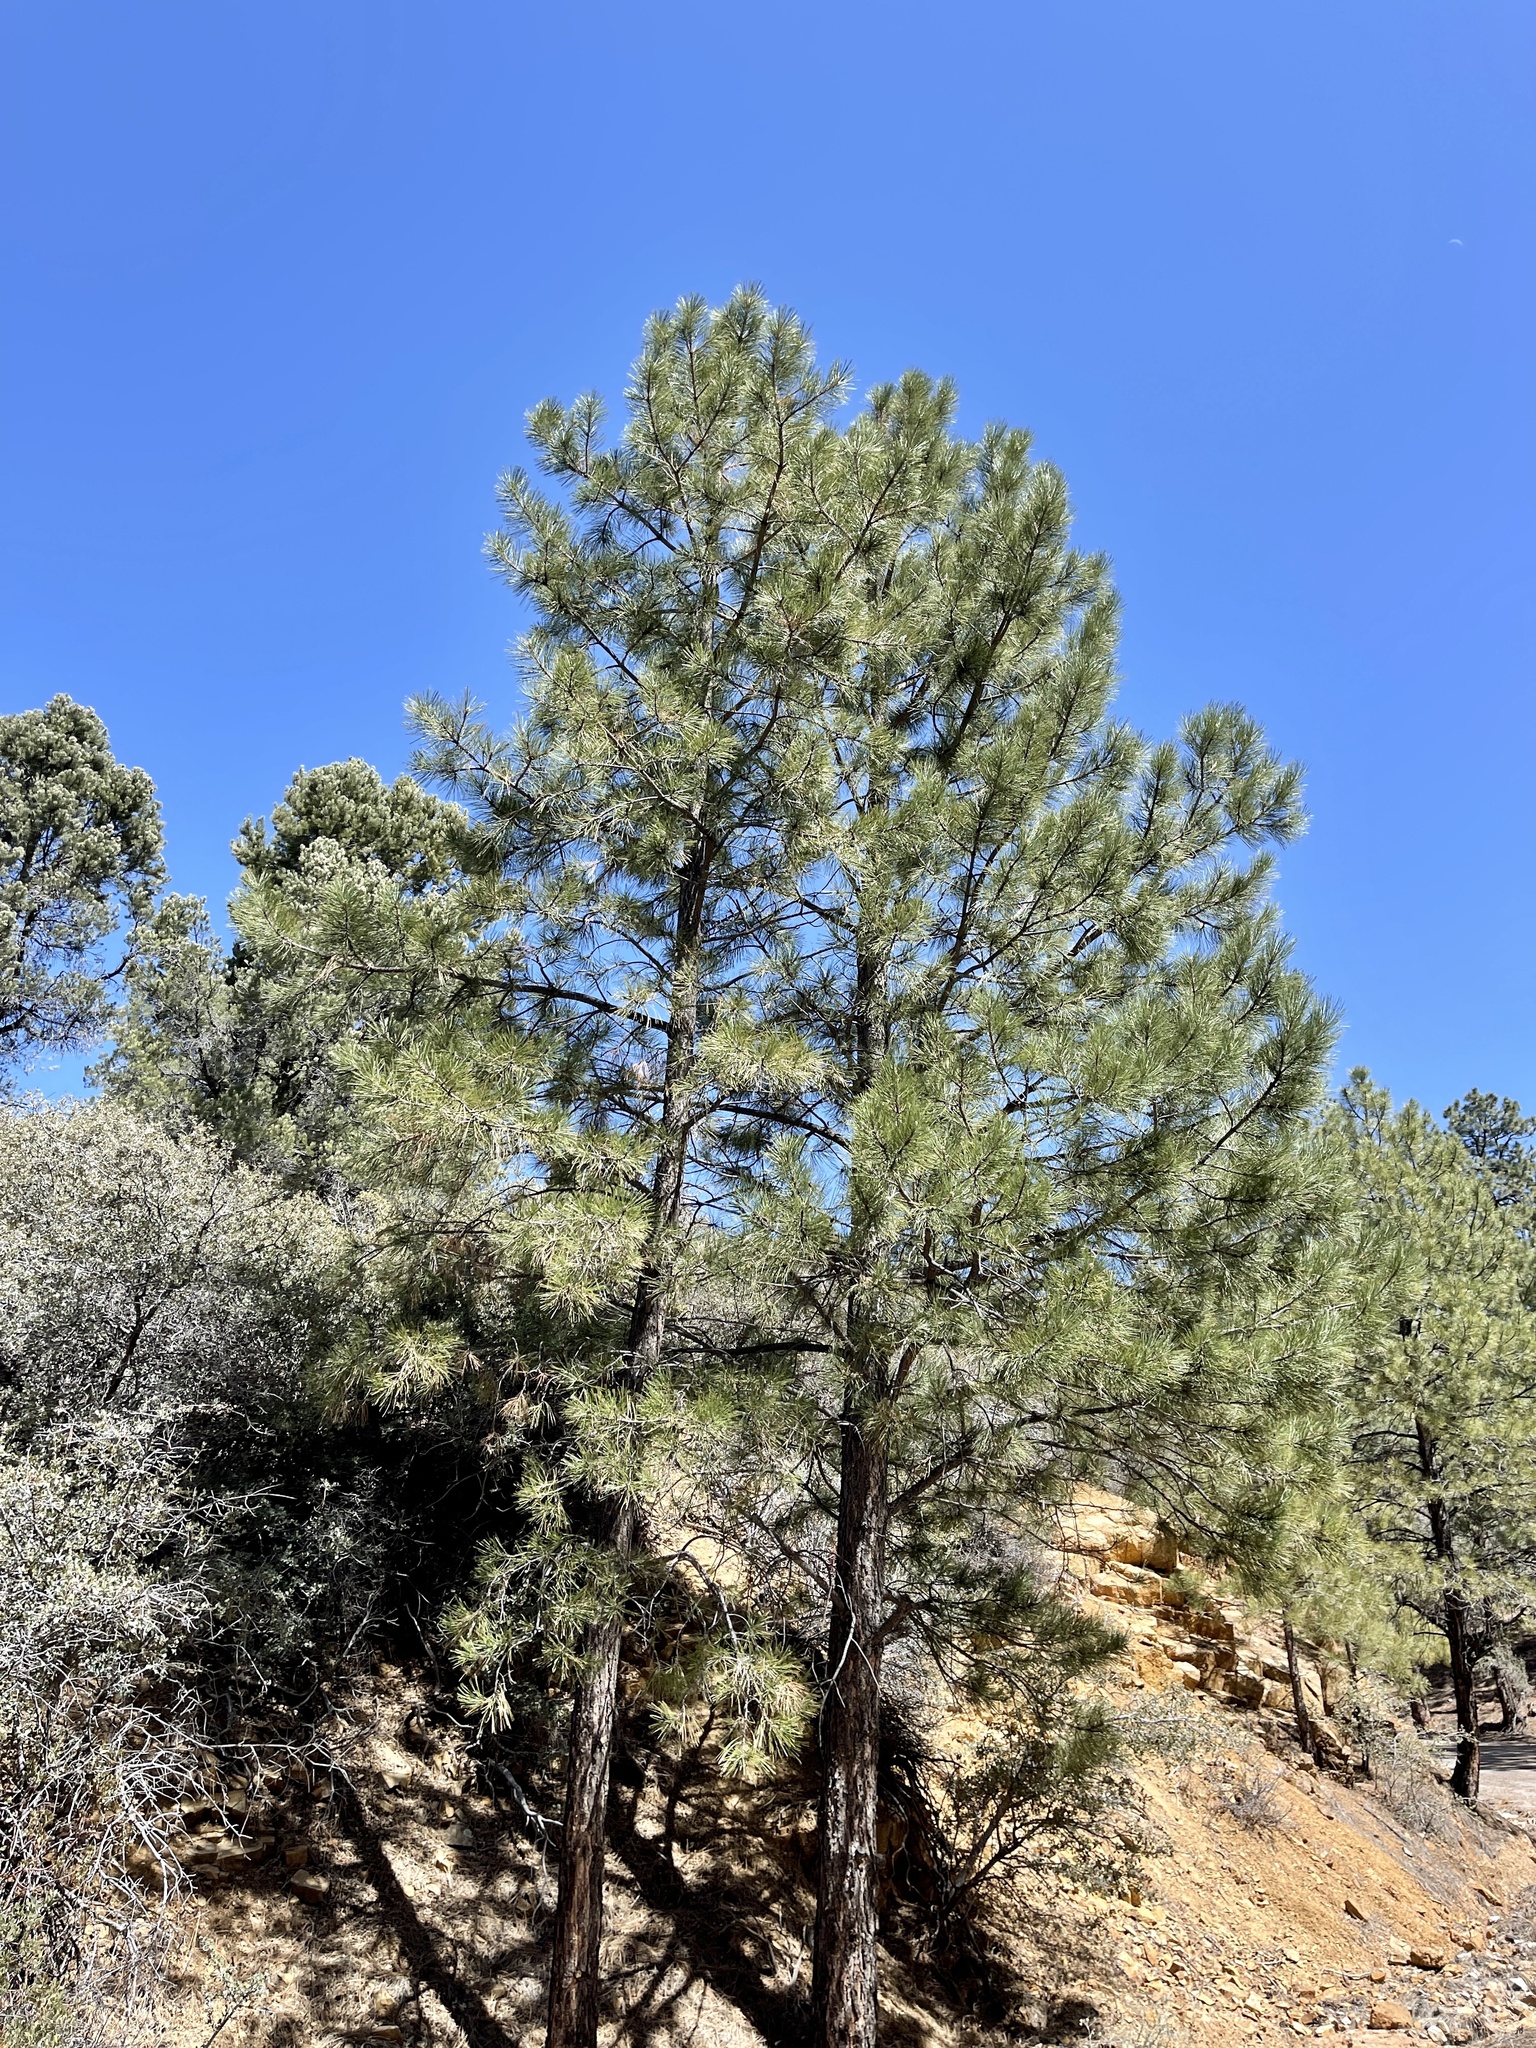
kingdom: Plantae
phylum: Tracheophyta
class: Pinopsida
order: Pinales
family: Pinaceae
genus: Pinus
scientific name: Pinus ponderosa
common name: Western yellow-pine
